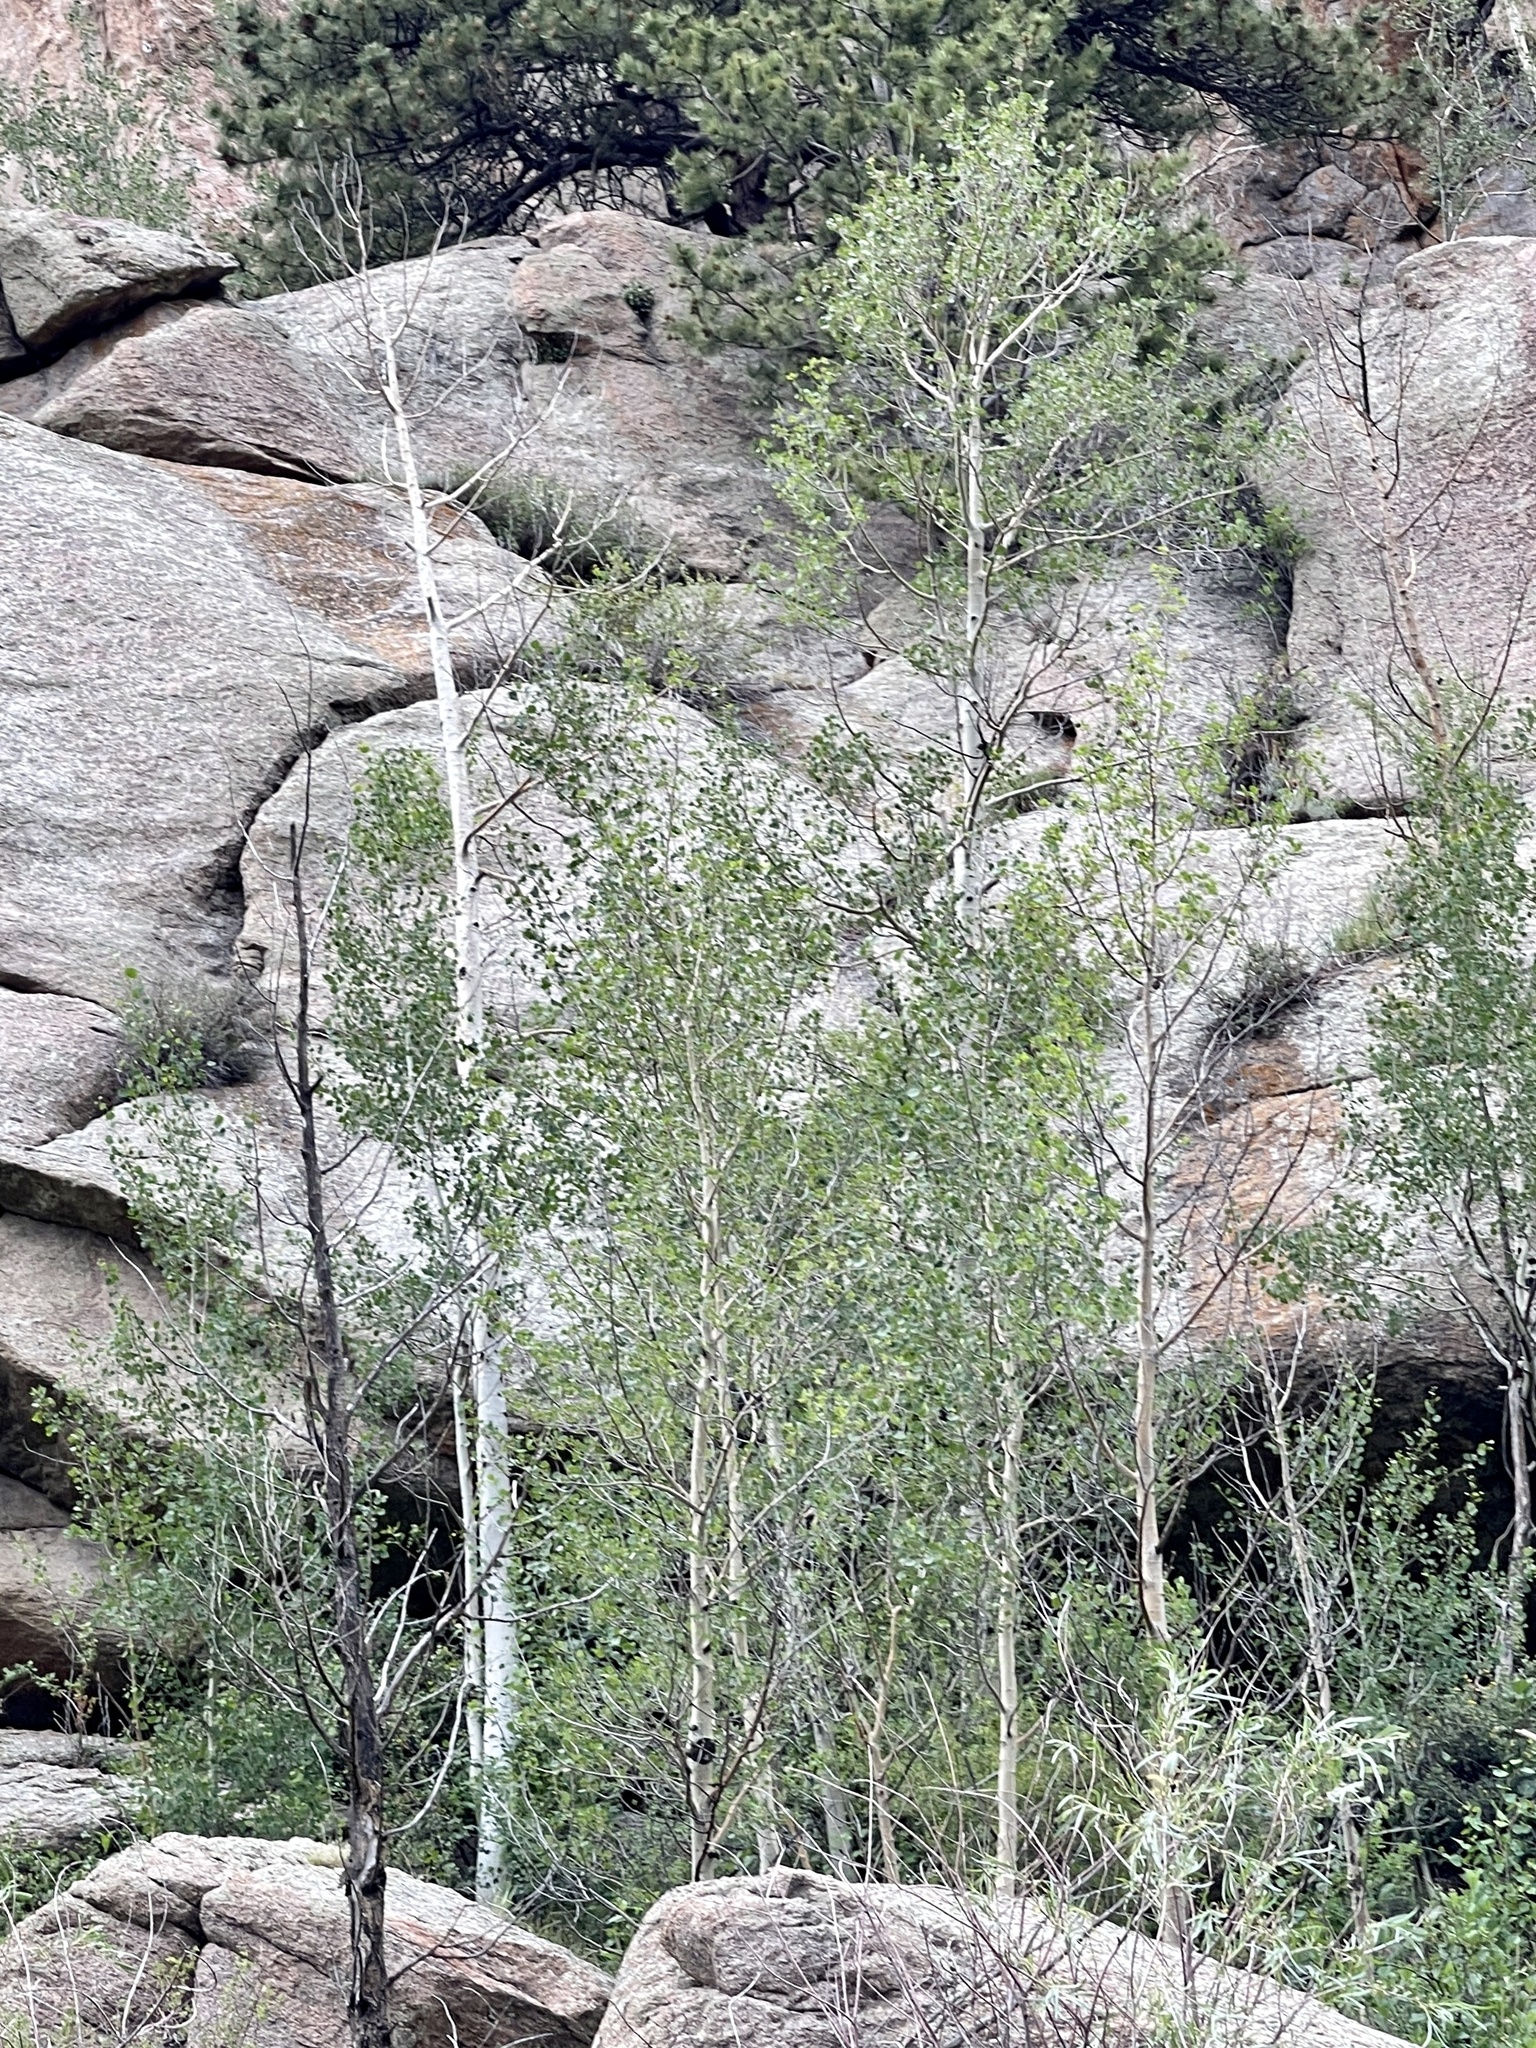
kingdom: Plantae
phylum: Tracheophyta
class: Magnoliopsida
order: Malpighiales
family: Salicaceae
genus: Populus
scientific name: Populus tremuloides
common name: Quaking aspen
